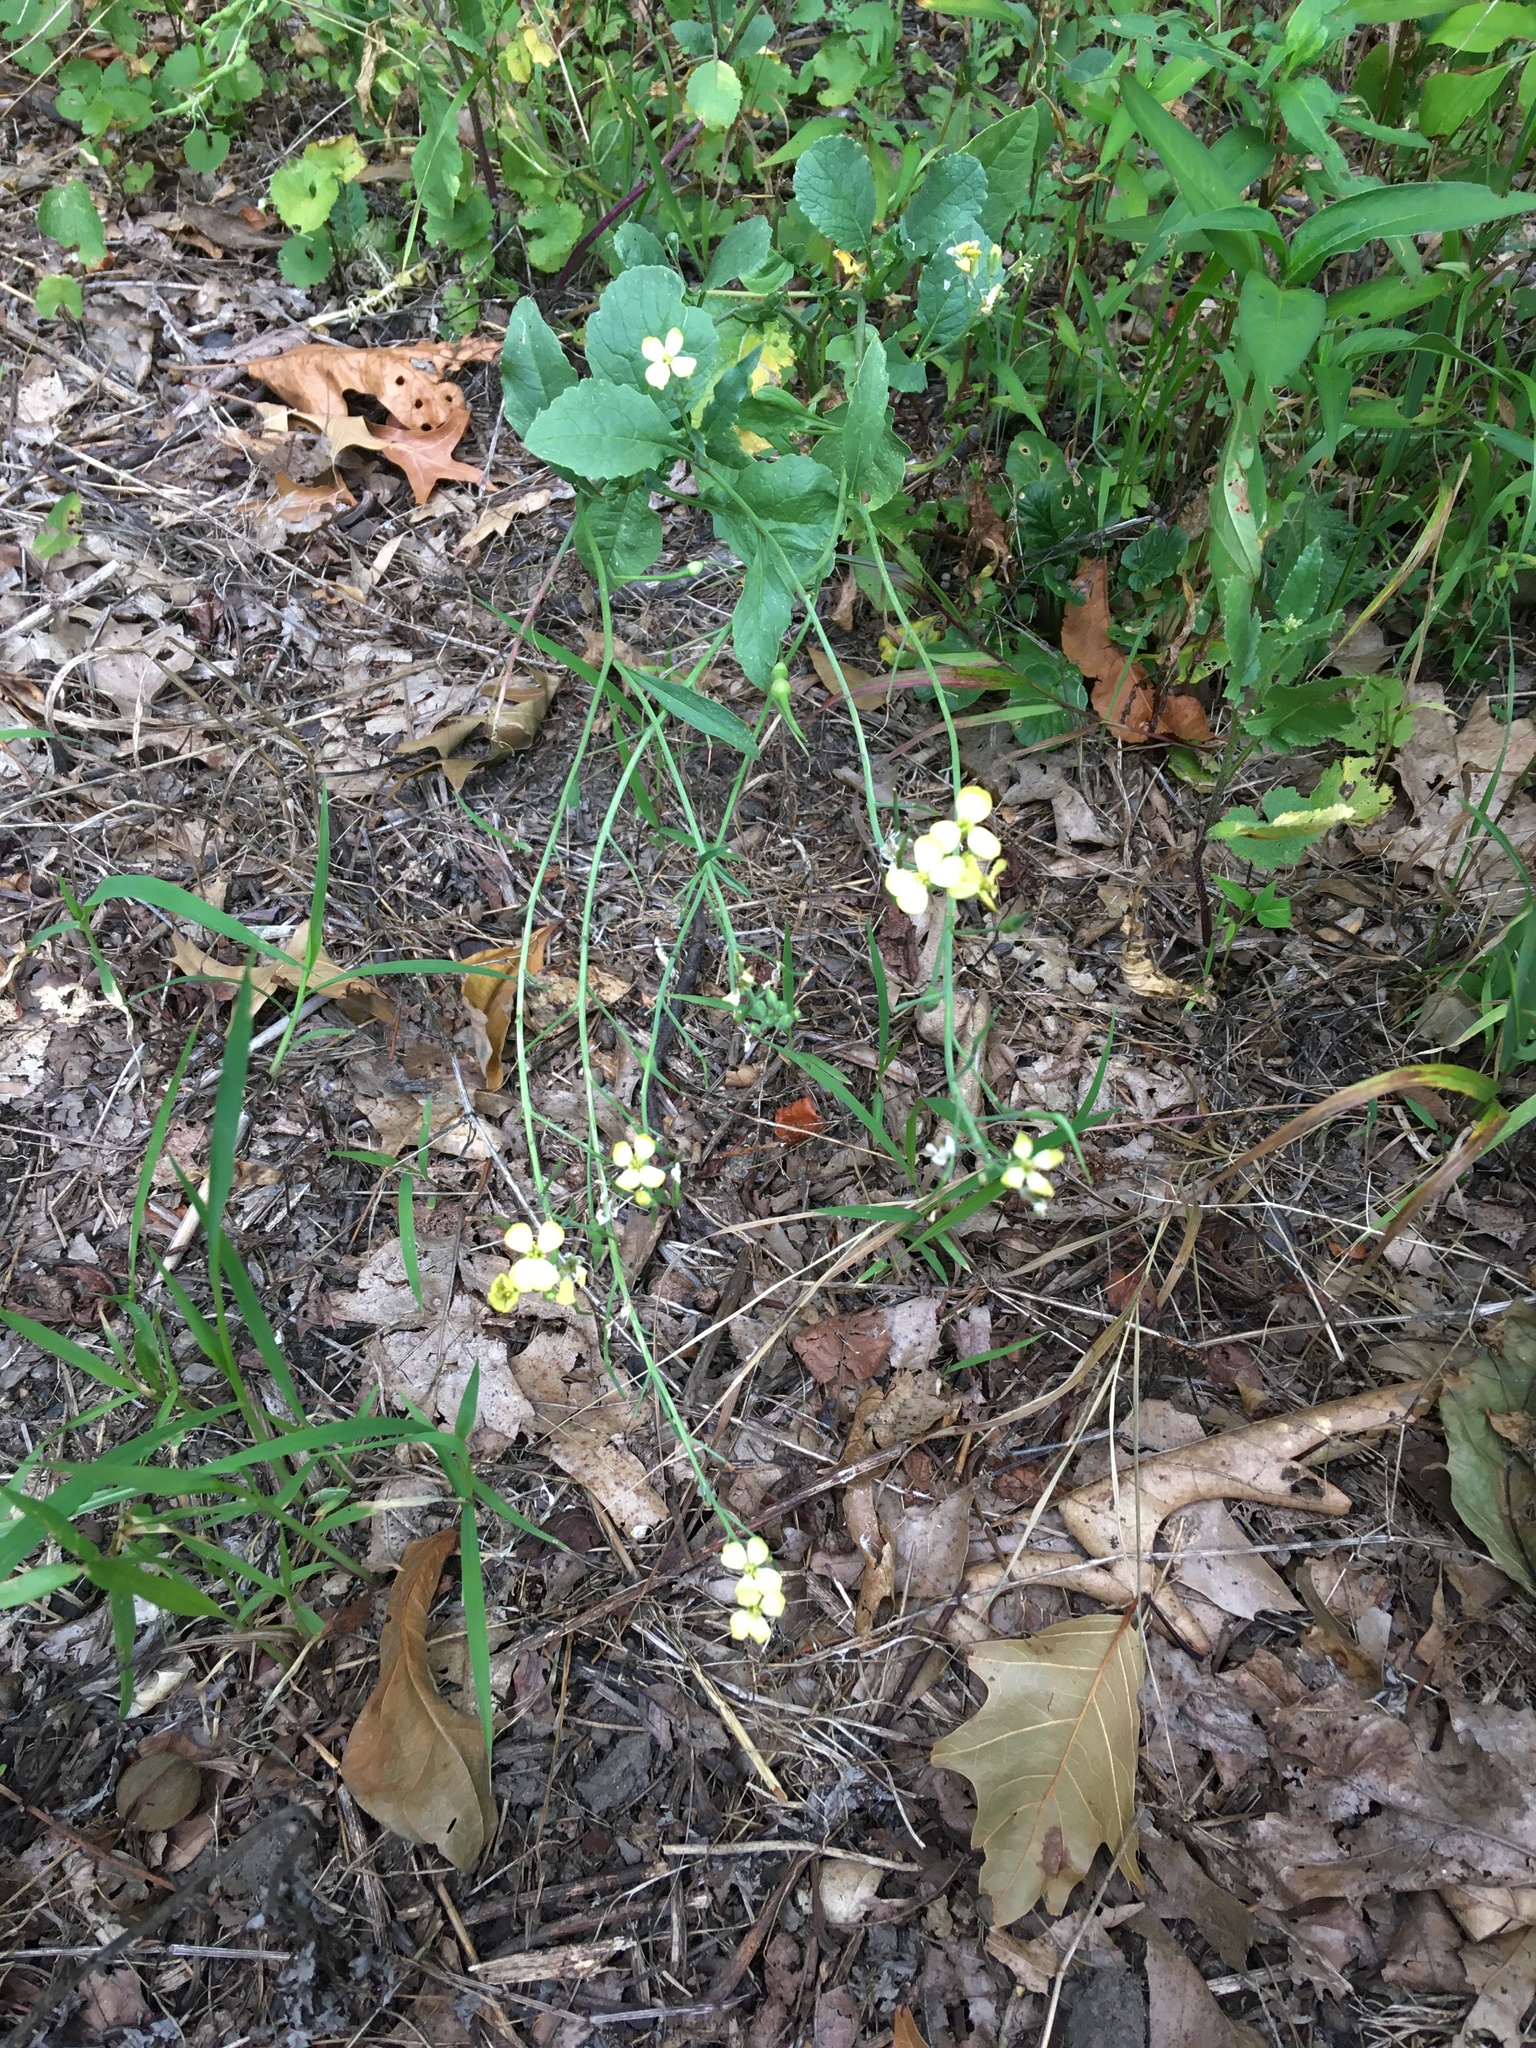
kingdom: Plantae
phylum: Tracheophyta
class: Magnoliopsida
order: Brassicales
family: Brassicaceae
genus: Raphanus
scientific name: Raphanus raphanistrum
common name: Wild radish
